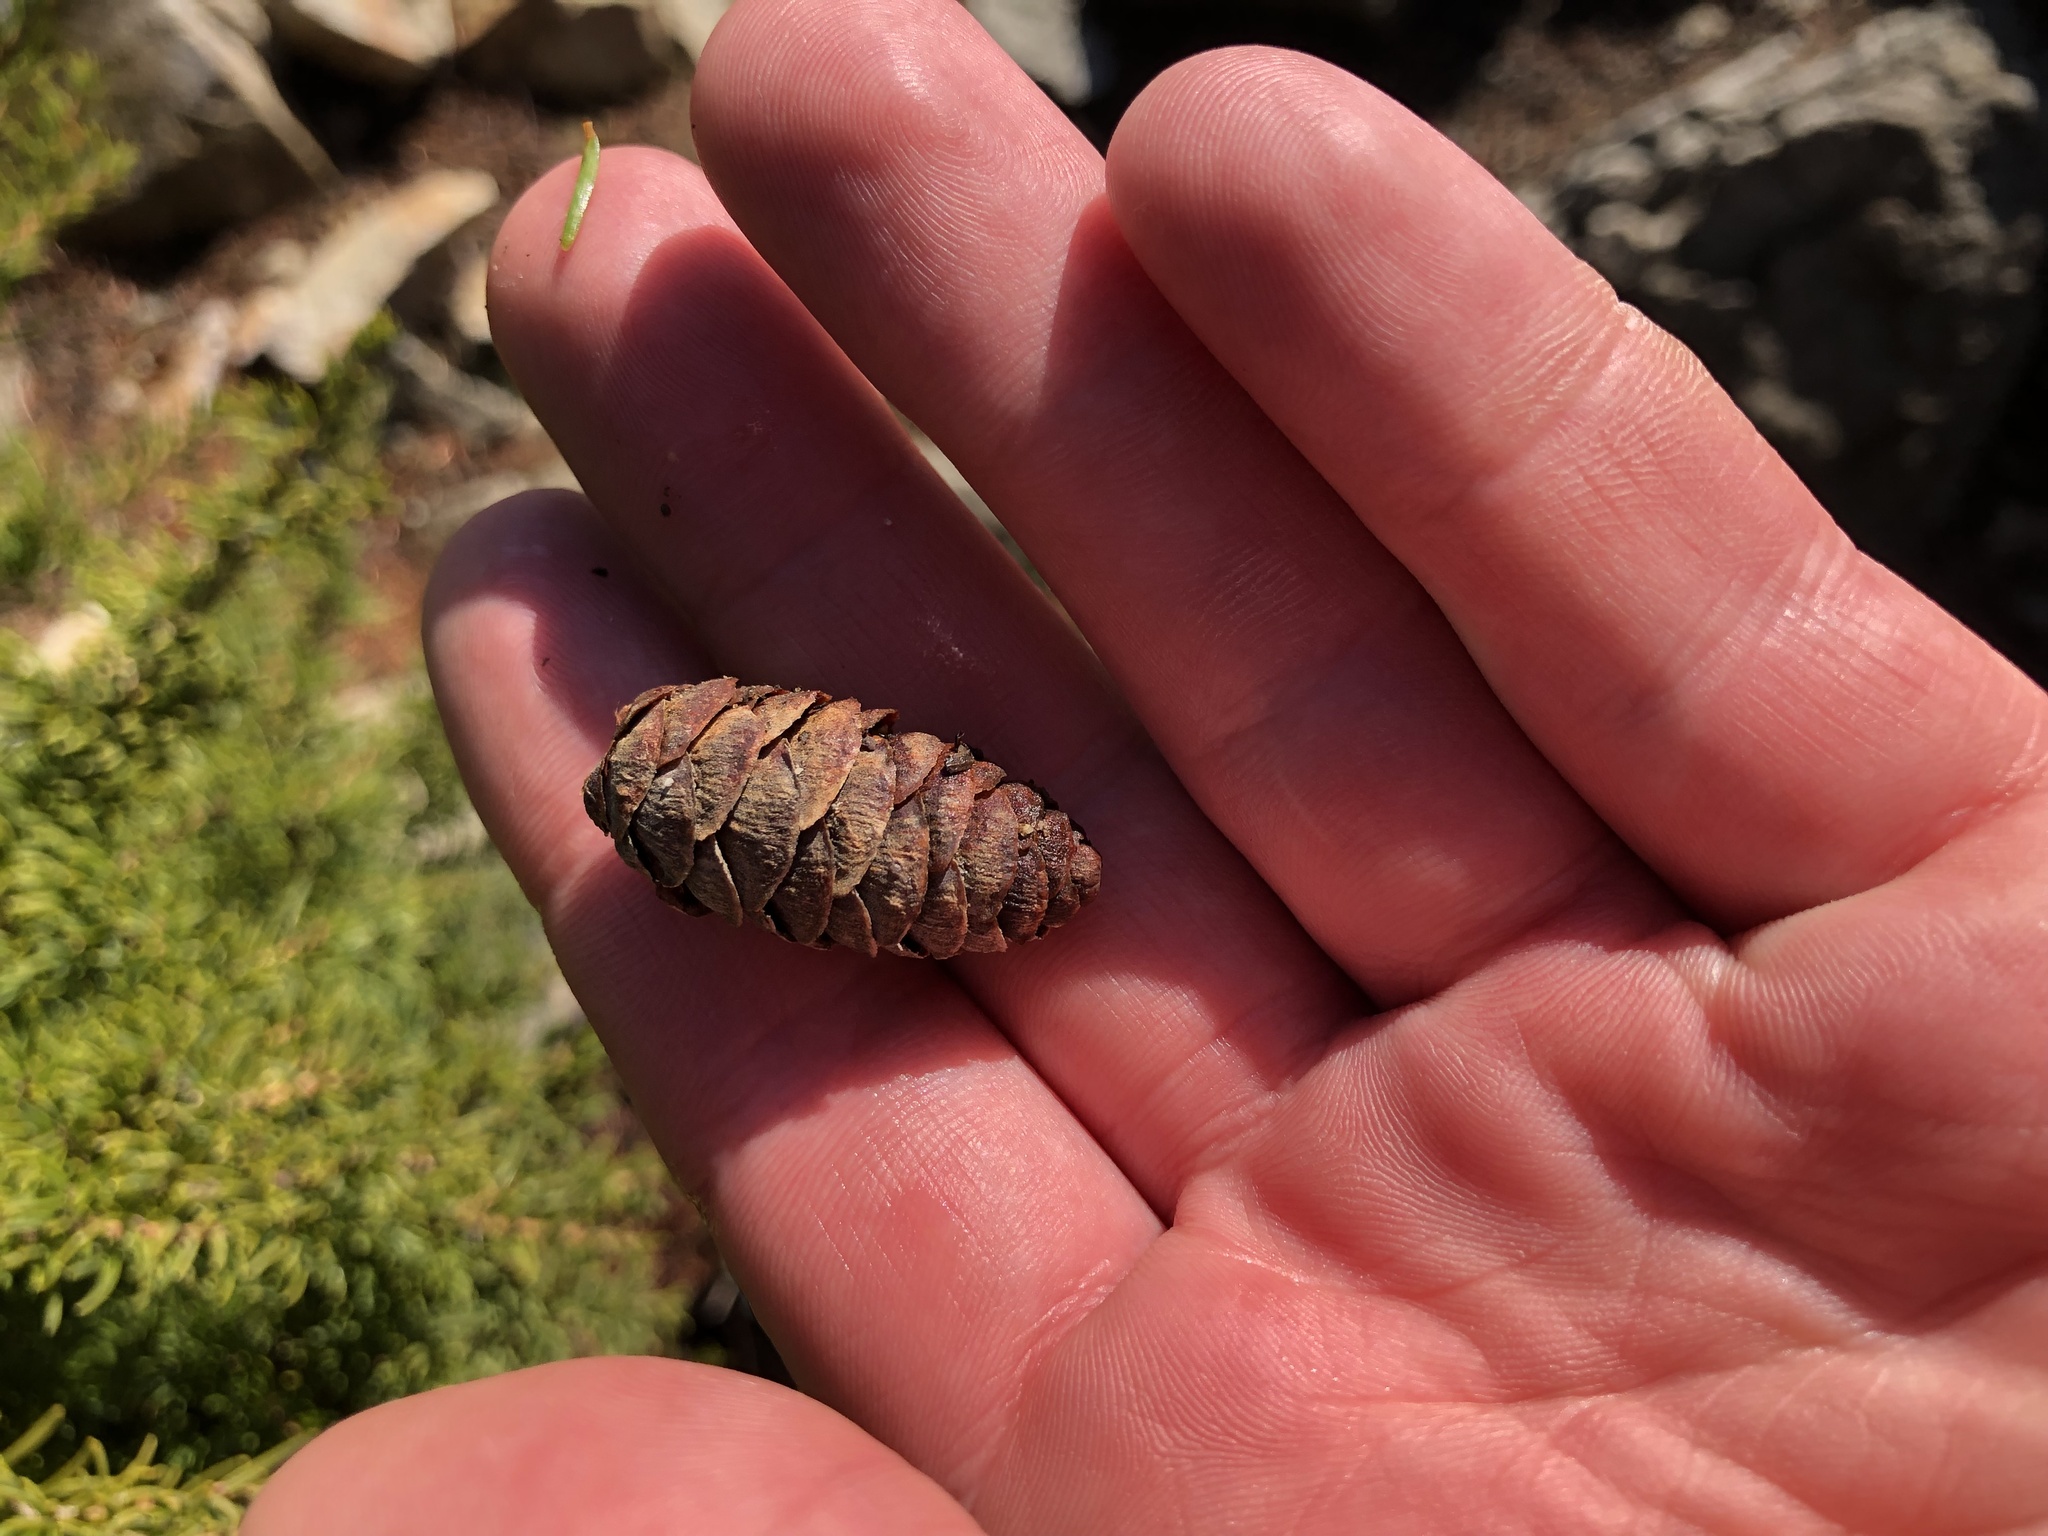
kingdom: Plantae
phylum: Tracheophyta
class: Pinopsida
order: Pinales
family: Pinaceae
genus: Tsuga
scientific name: Tsuga mertensiana
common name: Mountain hemlock
